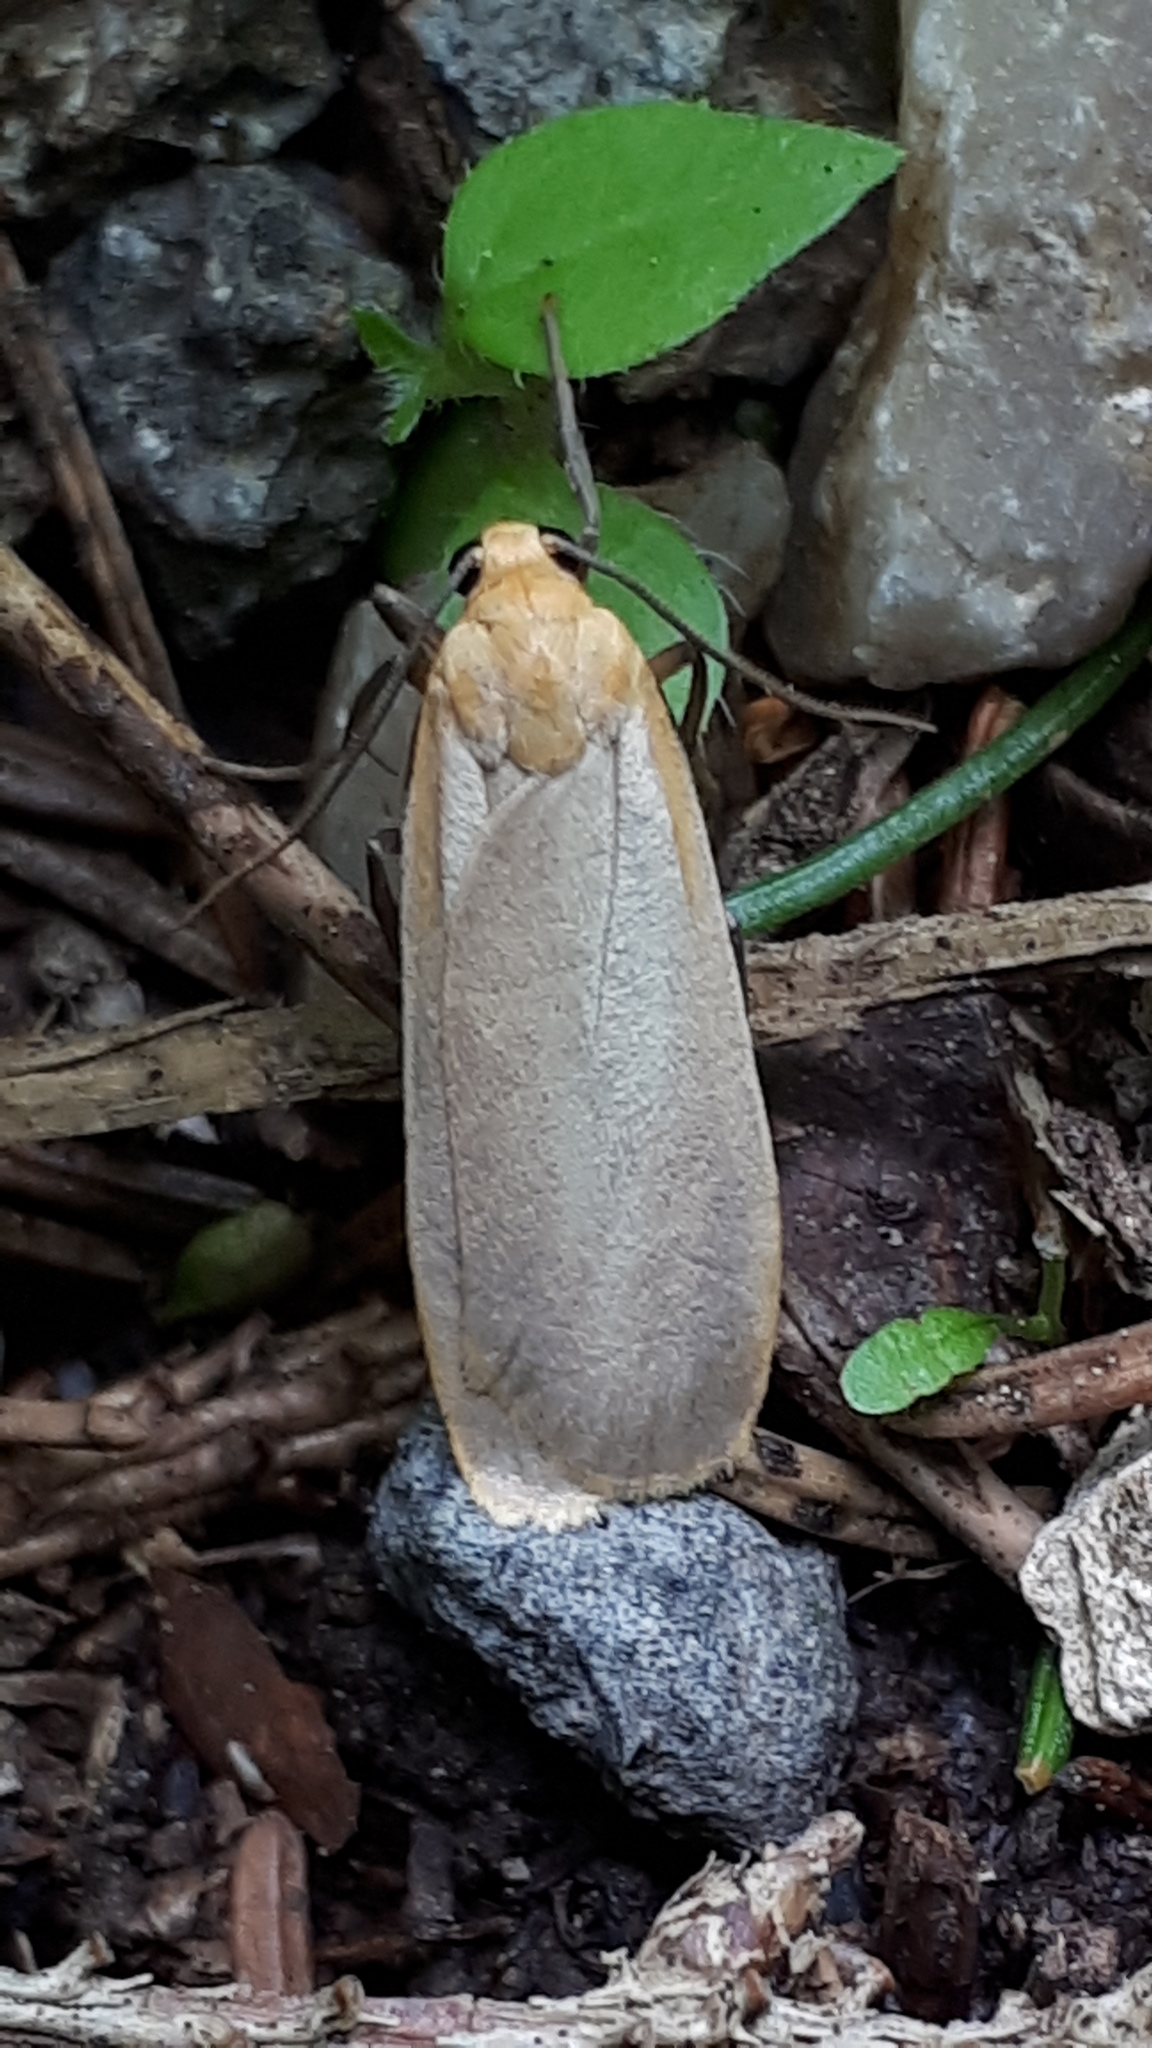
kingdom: Animalia
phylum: Arthropoda
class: Insecta
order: Lepidoptera
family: Erebidae
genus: Katha
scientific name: Katha depressa
